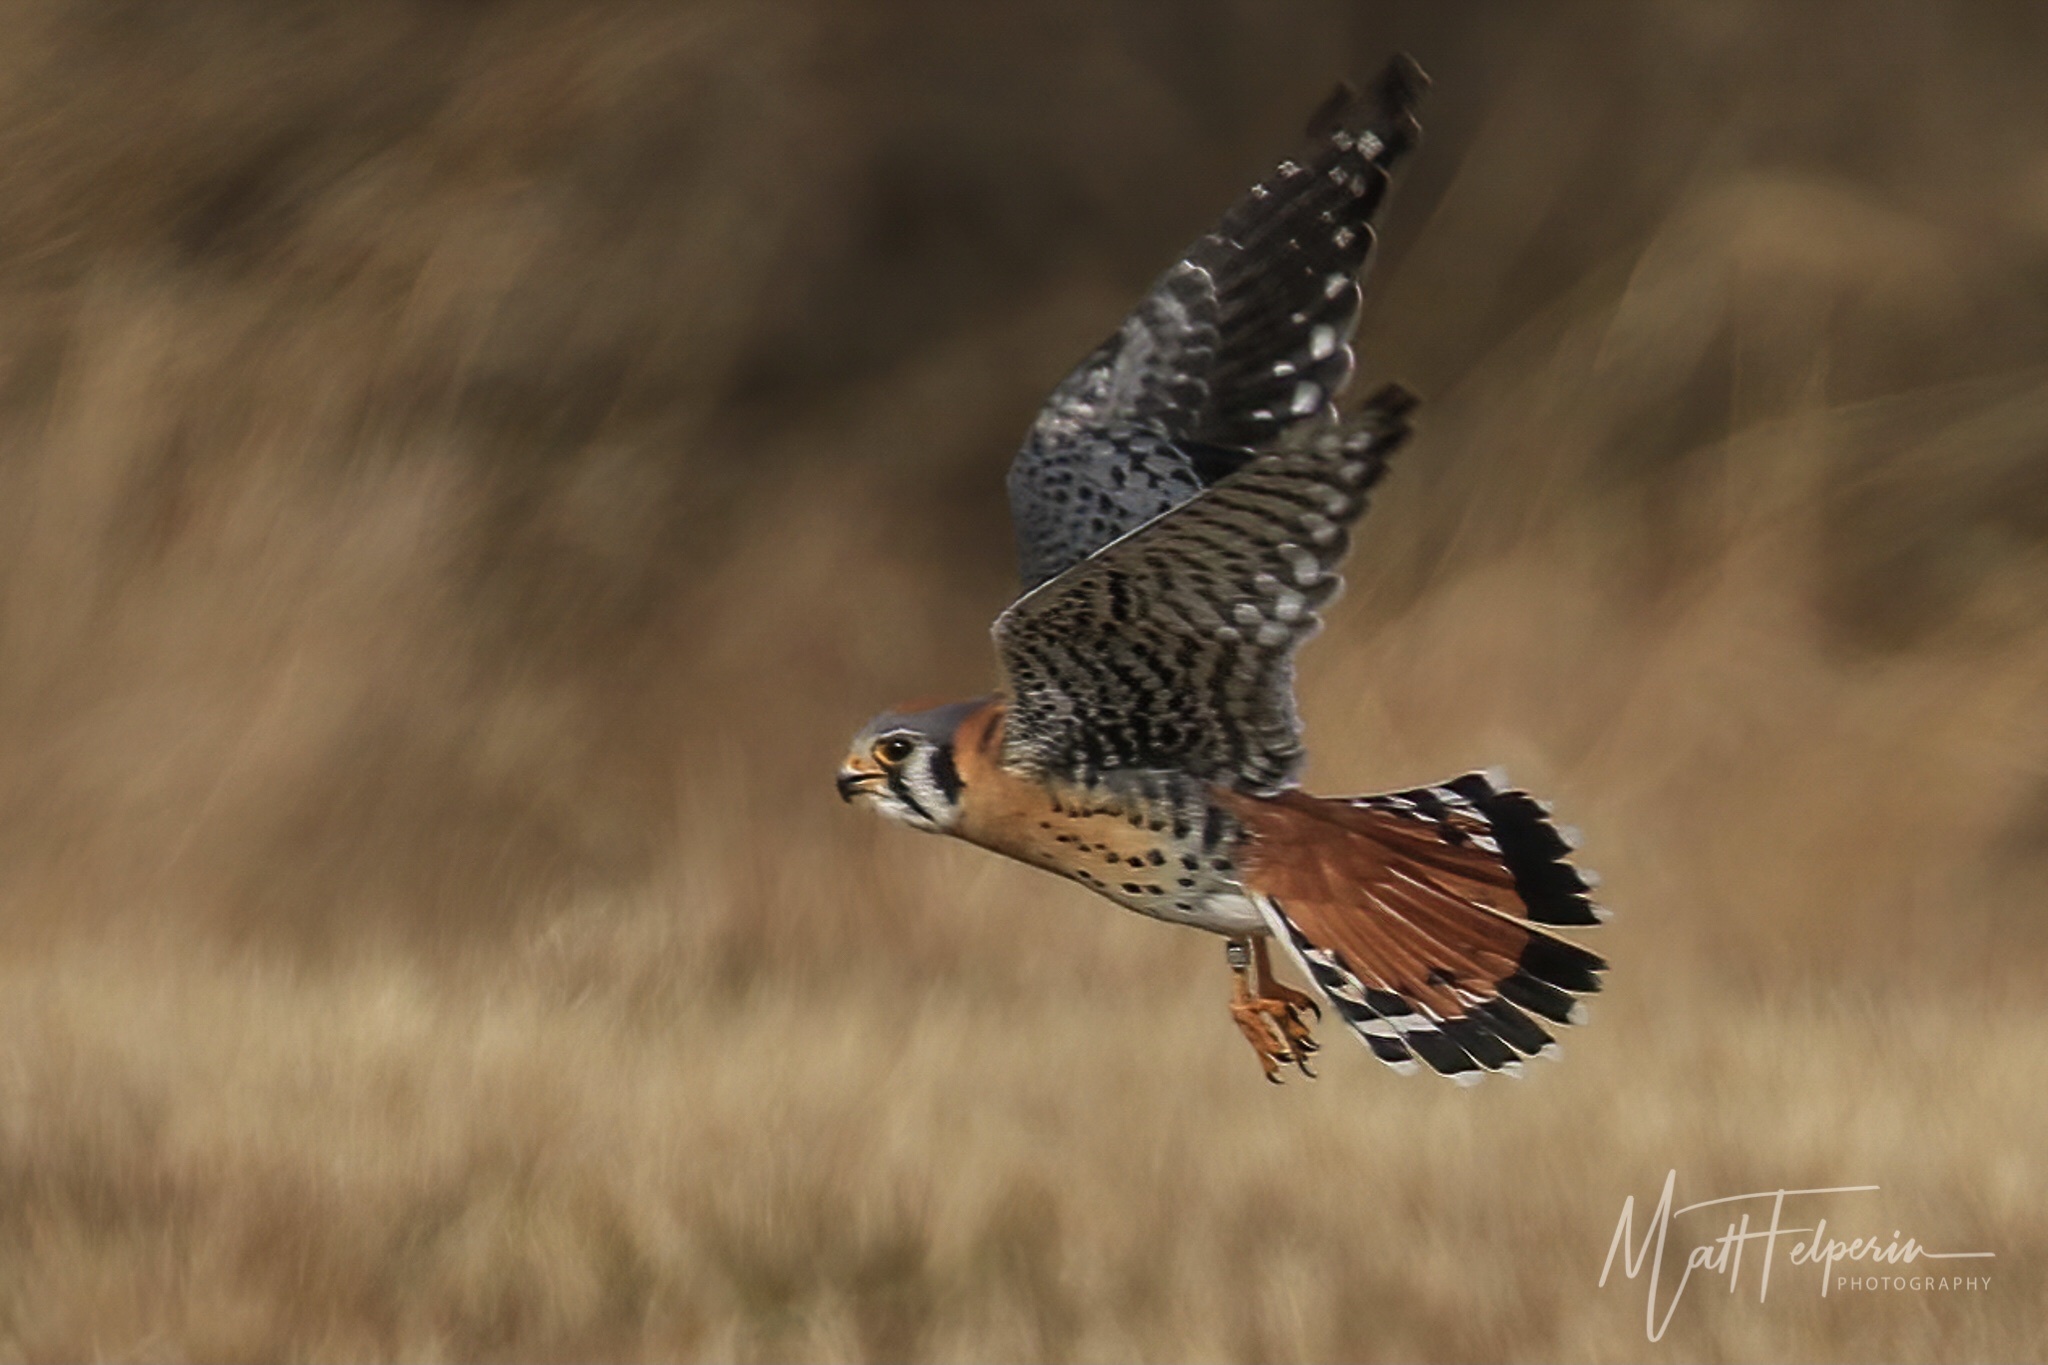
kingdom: Animalia
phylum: Chordata
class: Aves
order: Falconiformes
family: Falconidae
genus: Falco
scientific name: Falco sparverius
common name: American kestrel
